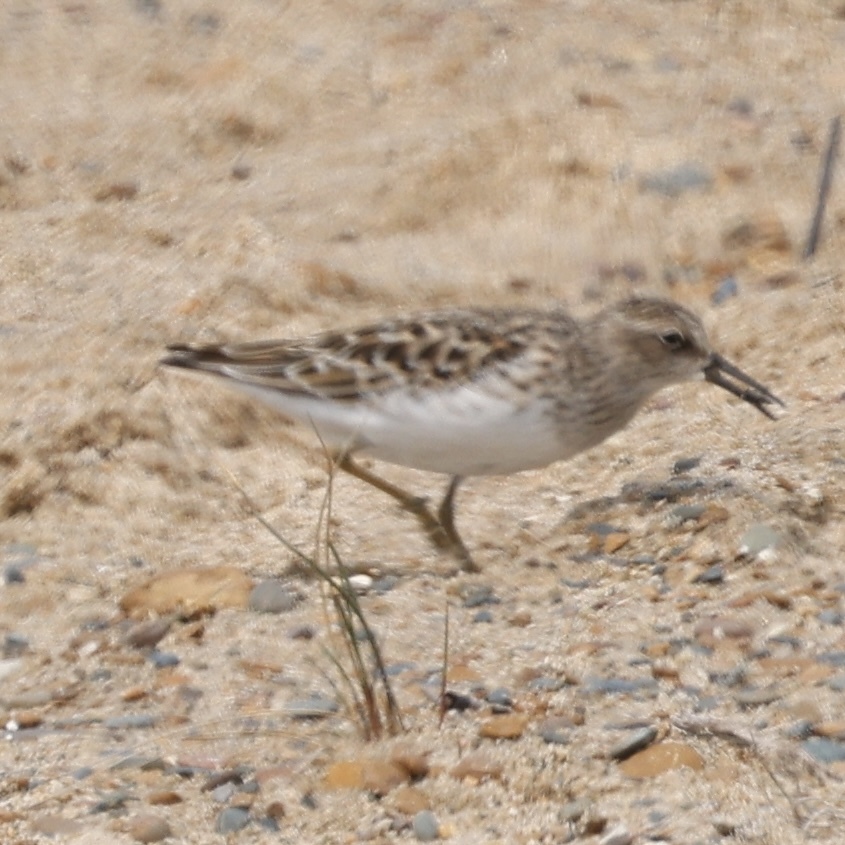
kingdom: Animalia
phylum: Chordata
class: Aves
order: Charadriiformes
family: Scolopacidae
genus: Calidris
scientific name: Calidris minutilla
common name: Least sandpiper
